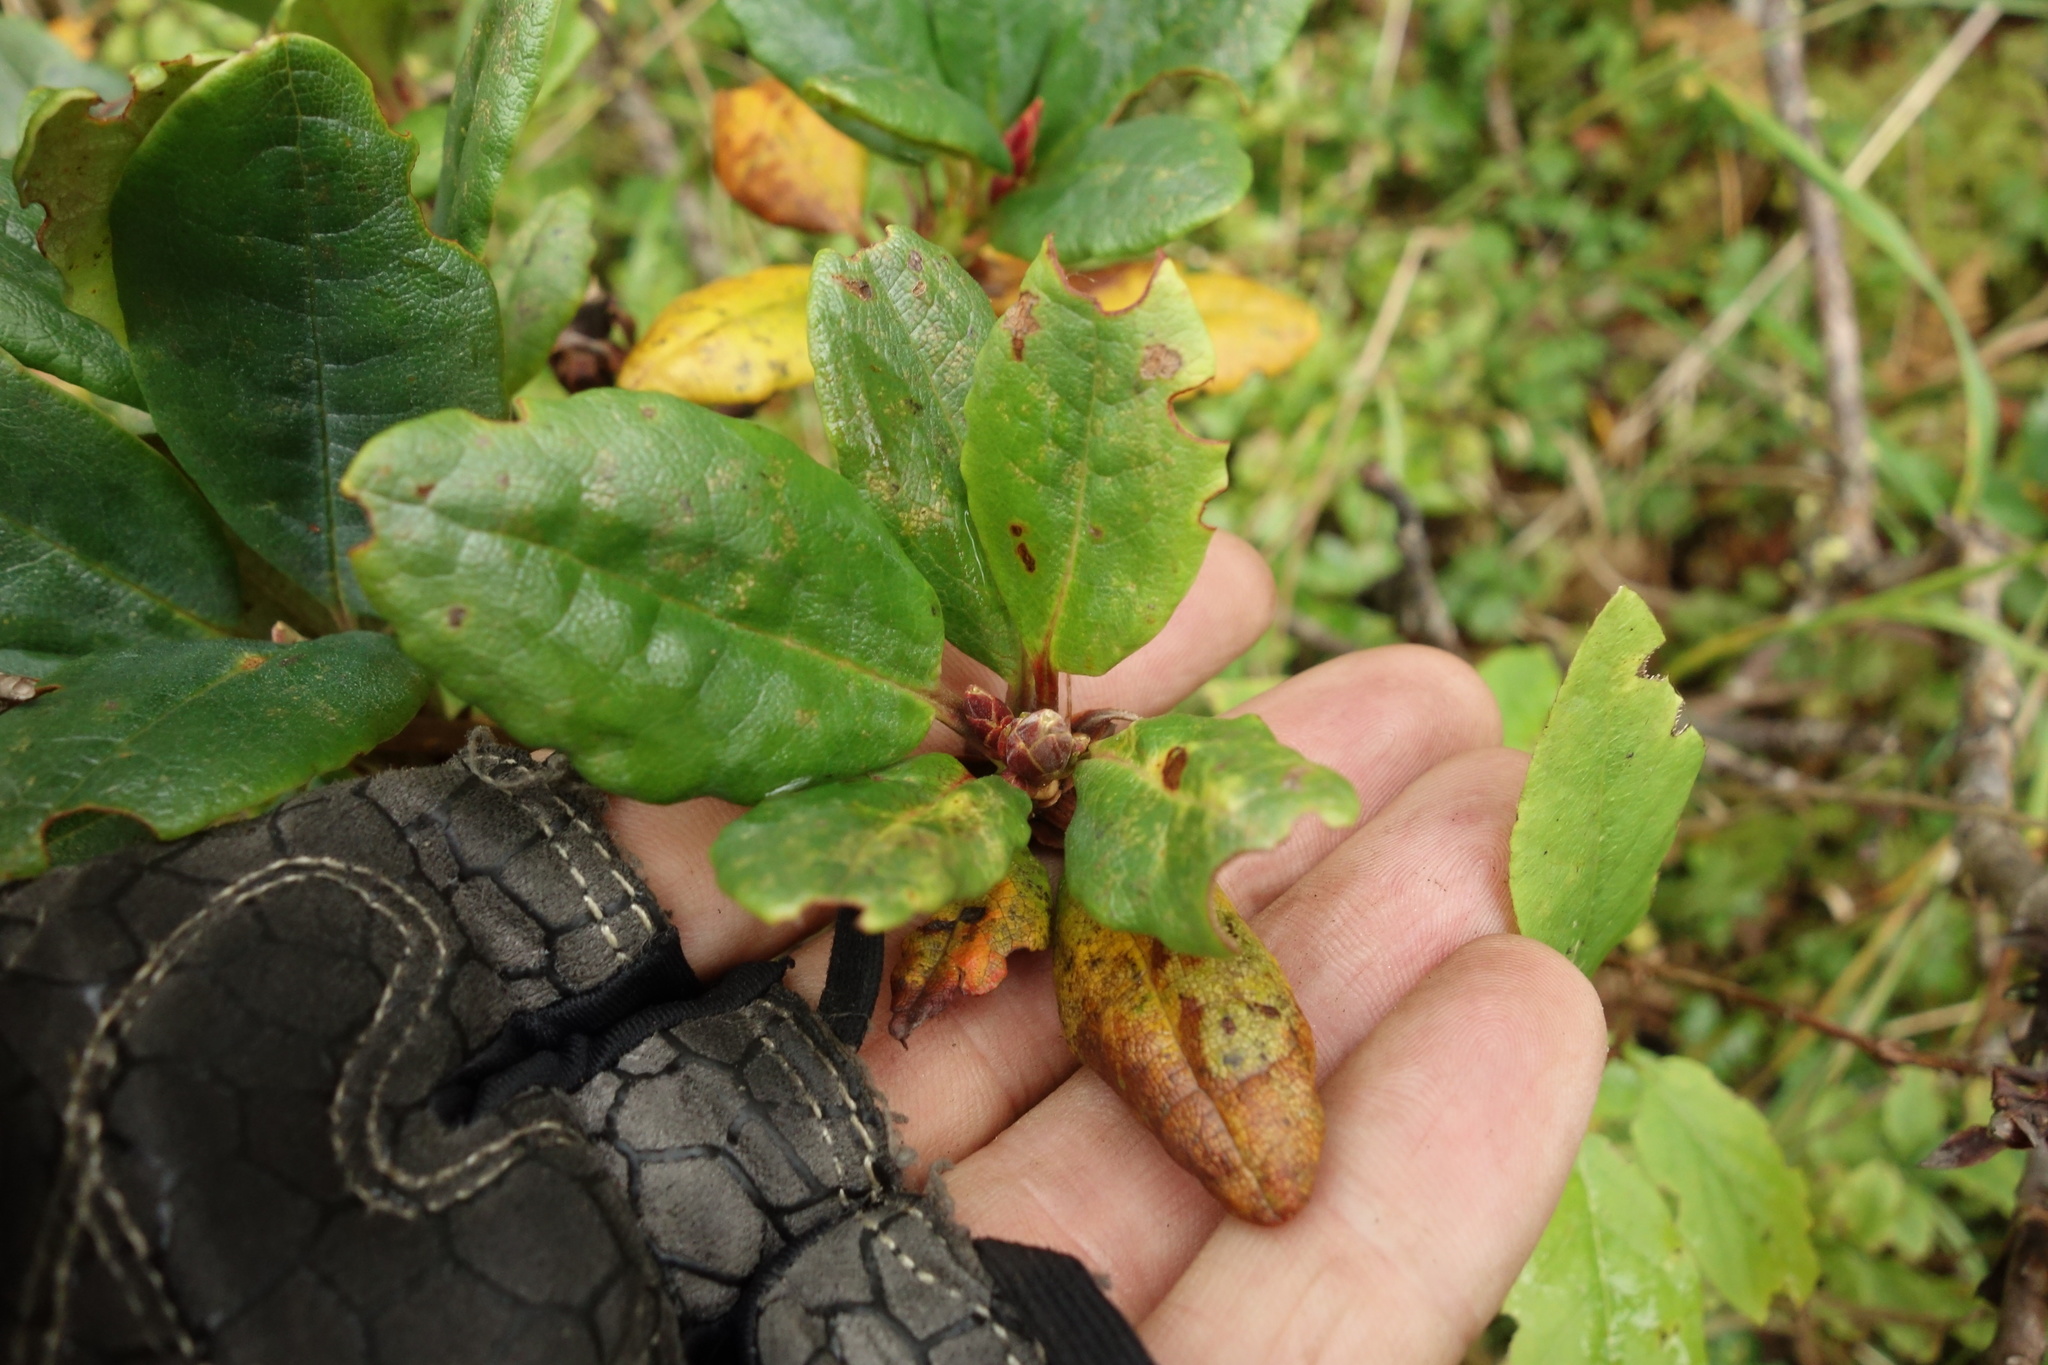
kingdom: Plantae
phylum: Tracheophyta
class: Magnoliopsida
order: Ericales
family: Ericaceae
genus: Rhododendron
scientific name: Rhododendron aureum
